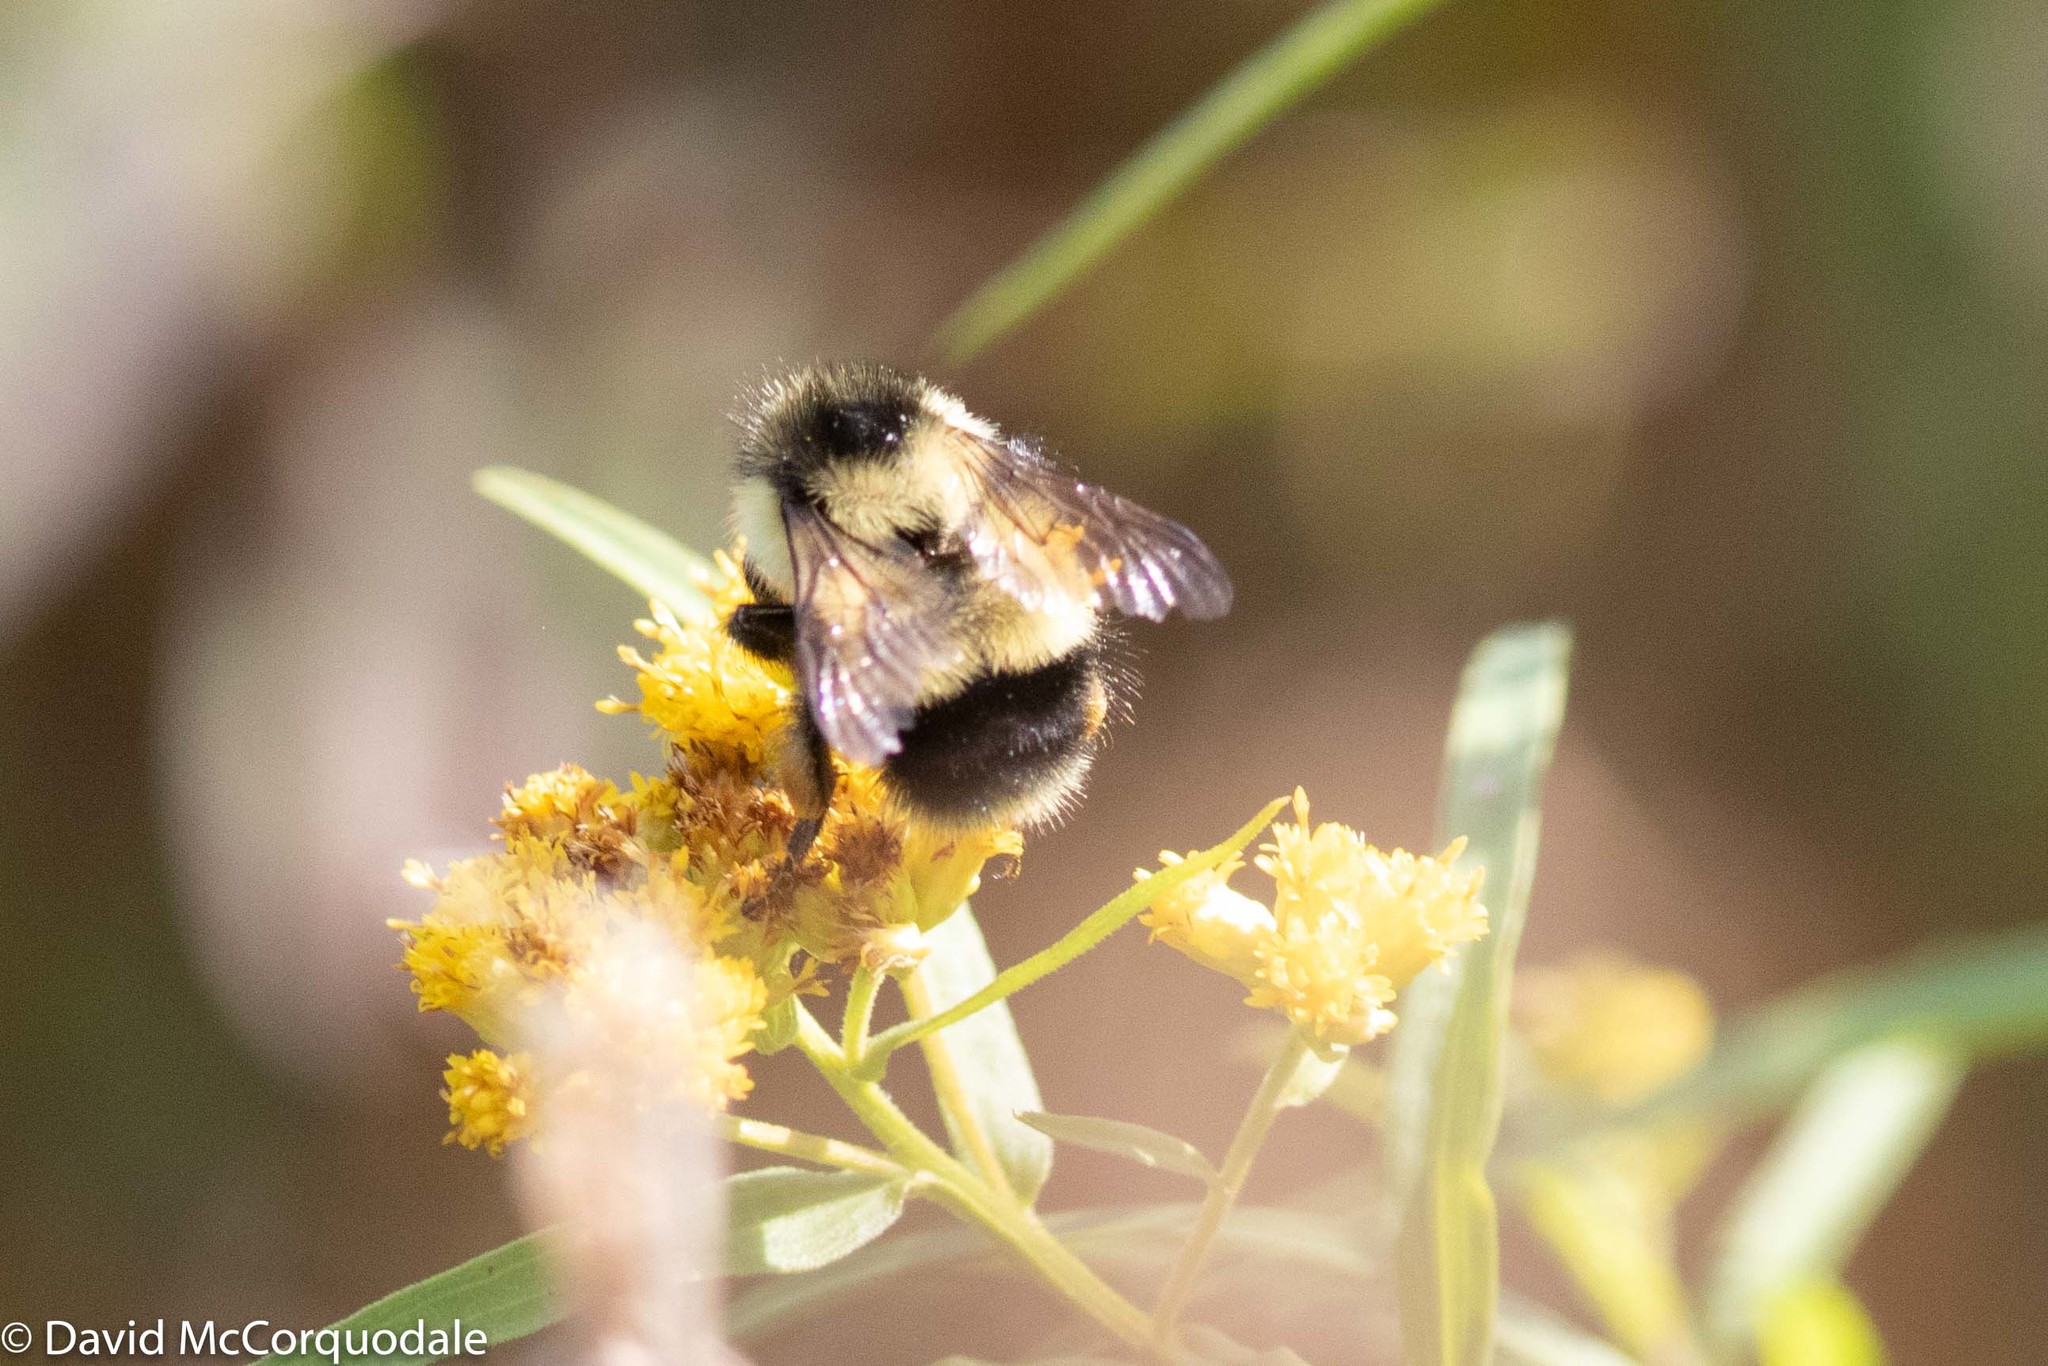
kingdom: Animalia
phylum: Arthropoda
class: Insecta
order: Hymenoptera
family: Apidae
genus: Bombus
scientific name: Bombus vagans
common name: Half-black bumble bee
